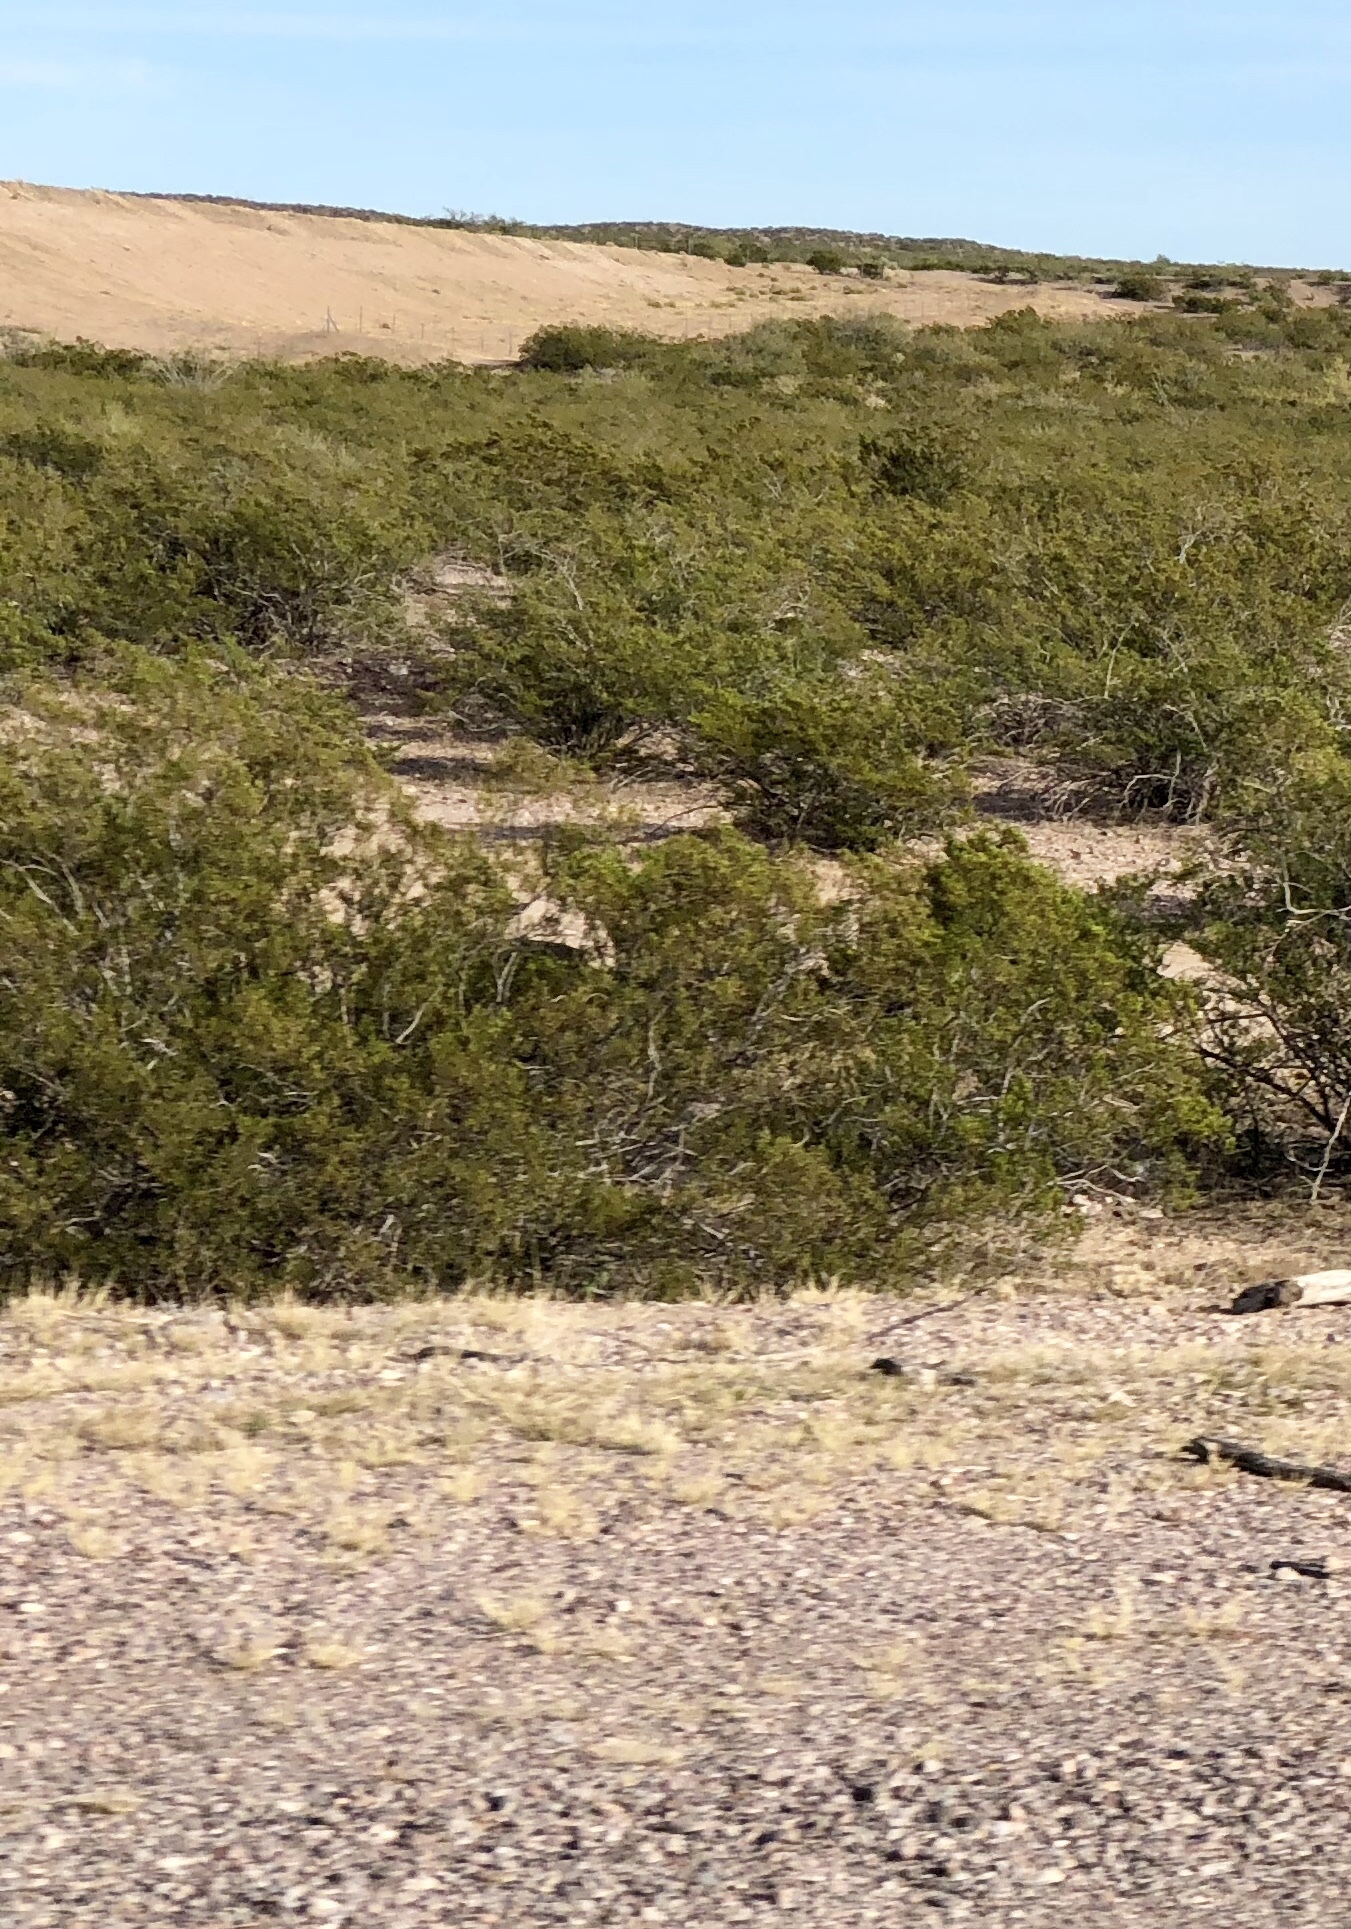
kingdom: Plantae
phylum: Tracheophyta
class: Magnoliopsida
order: Zygophyllales
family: Zygophyllaceae
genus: Larrea
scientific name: Larrea tridentata
